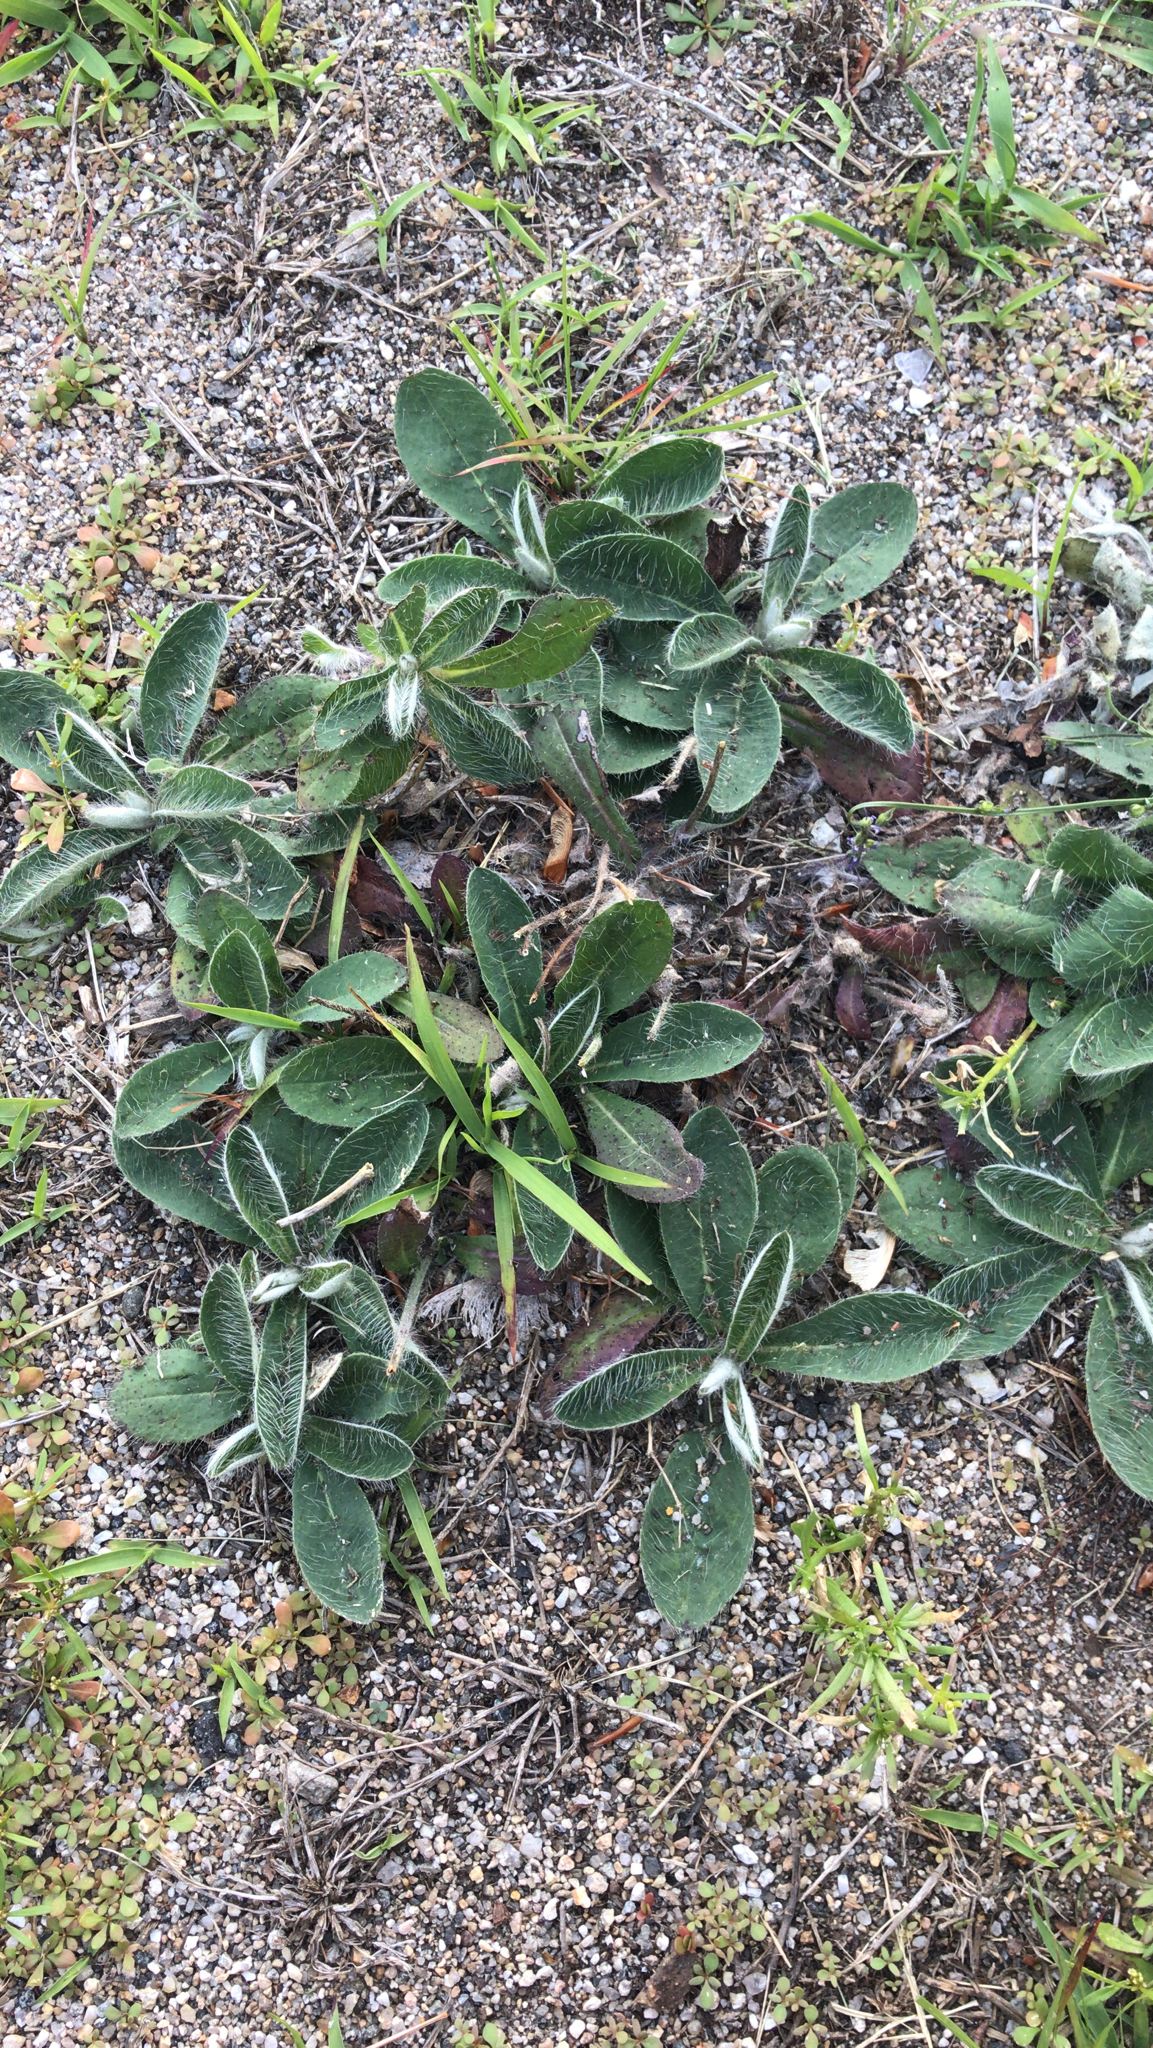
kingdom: Plantae
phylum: Tracheophyta
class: Magnoliopsida
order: Asterales
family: Asteraceae
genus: Pilosella
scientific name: Pilosella officinarum
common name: Mouse-ear hawkweed
